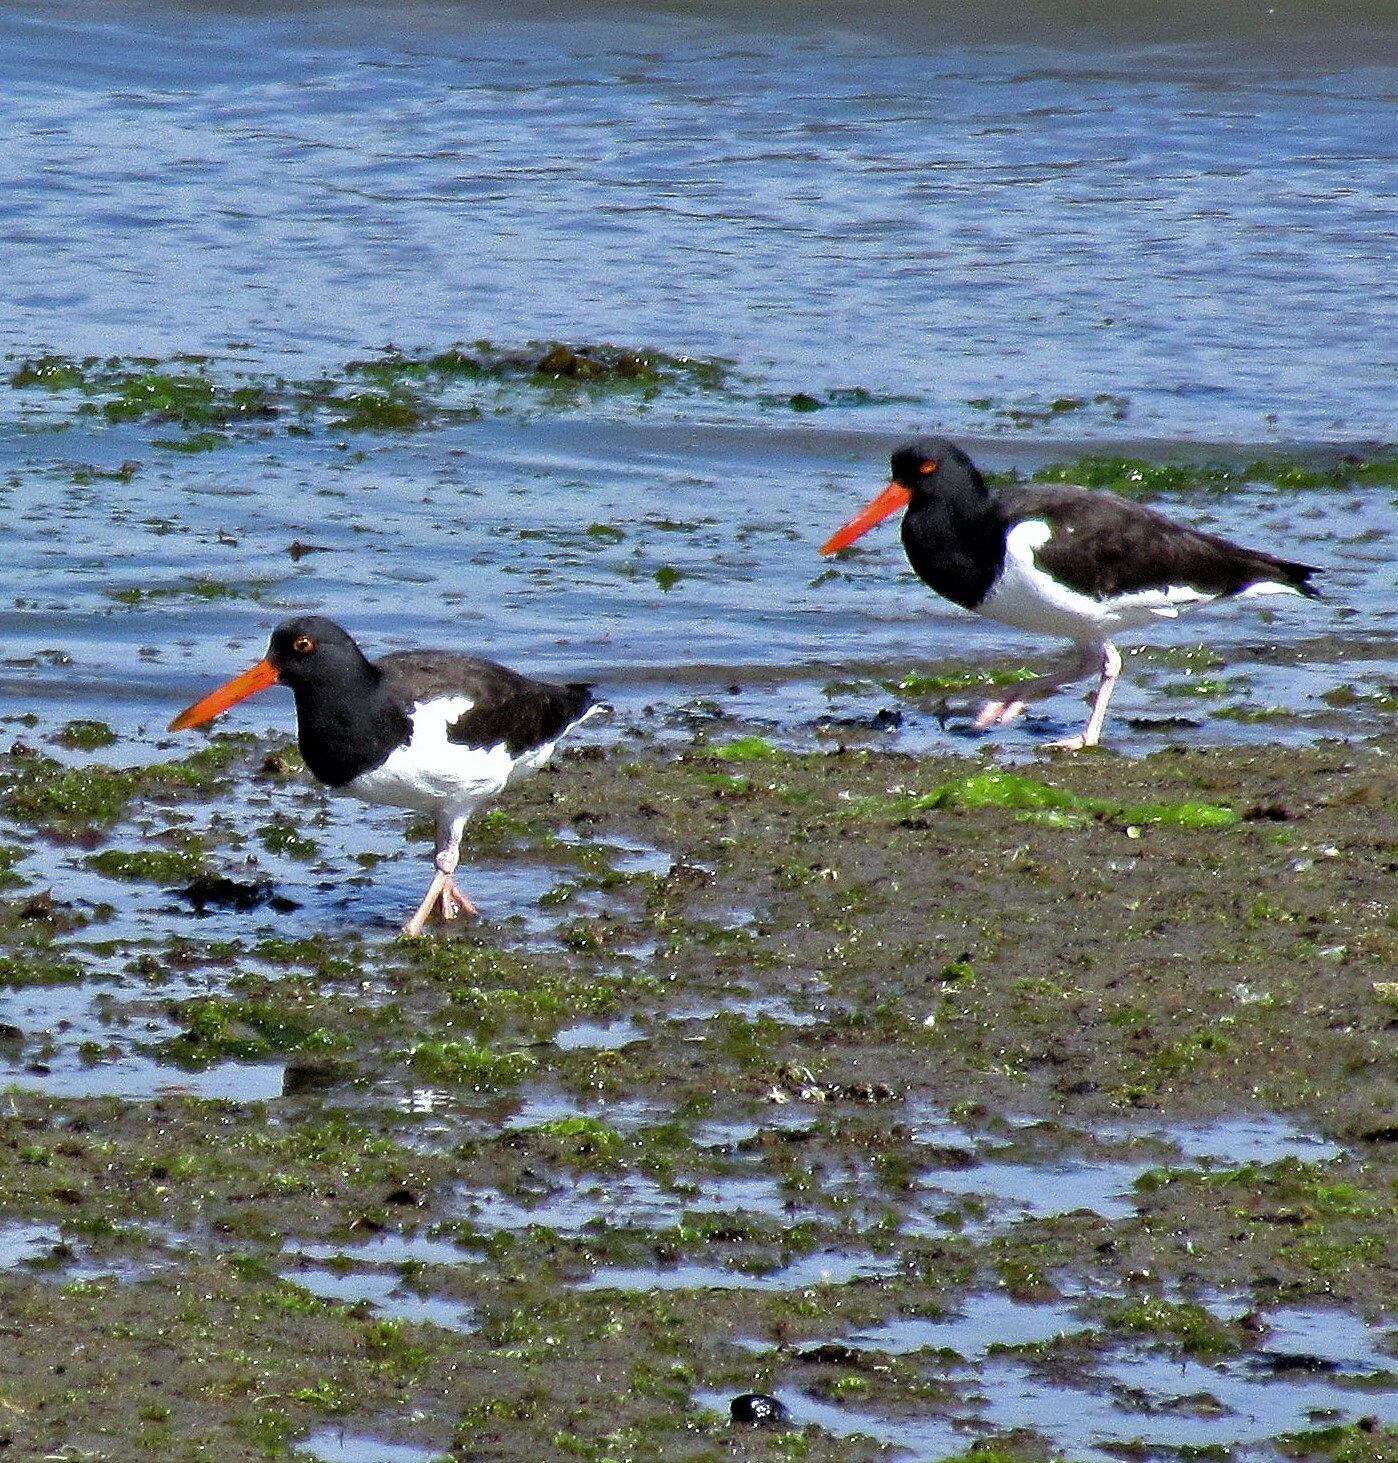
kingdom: Animalia
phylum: Chordata
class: Aves
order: Charadriiformes
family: Haematopodidae
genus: Haematopus
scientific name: Haematopus palliatus
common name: American oystercatcher
